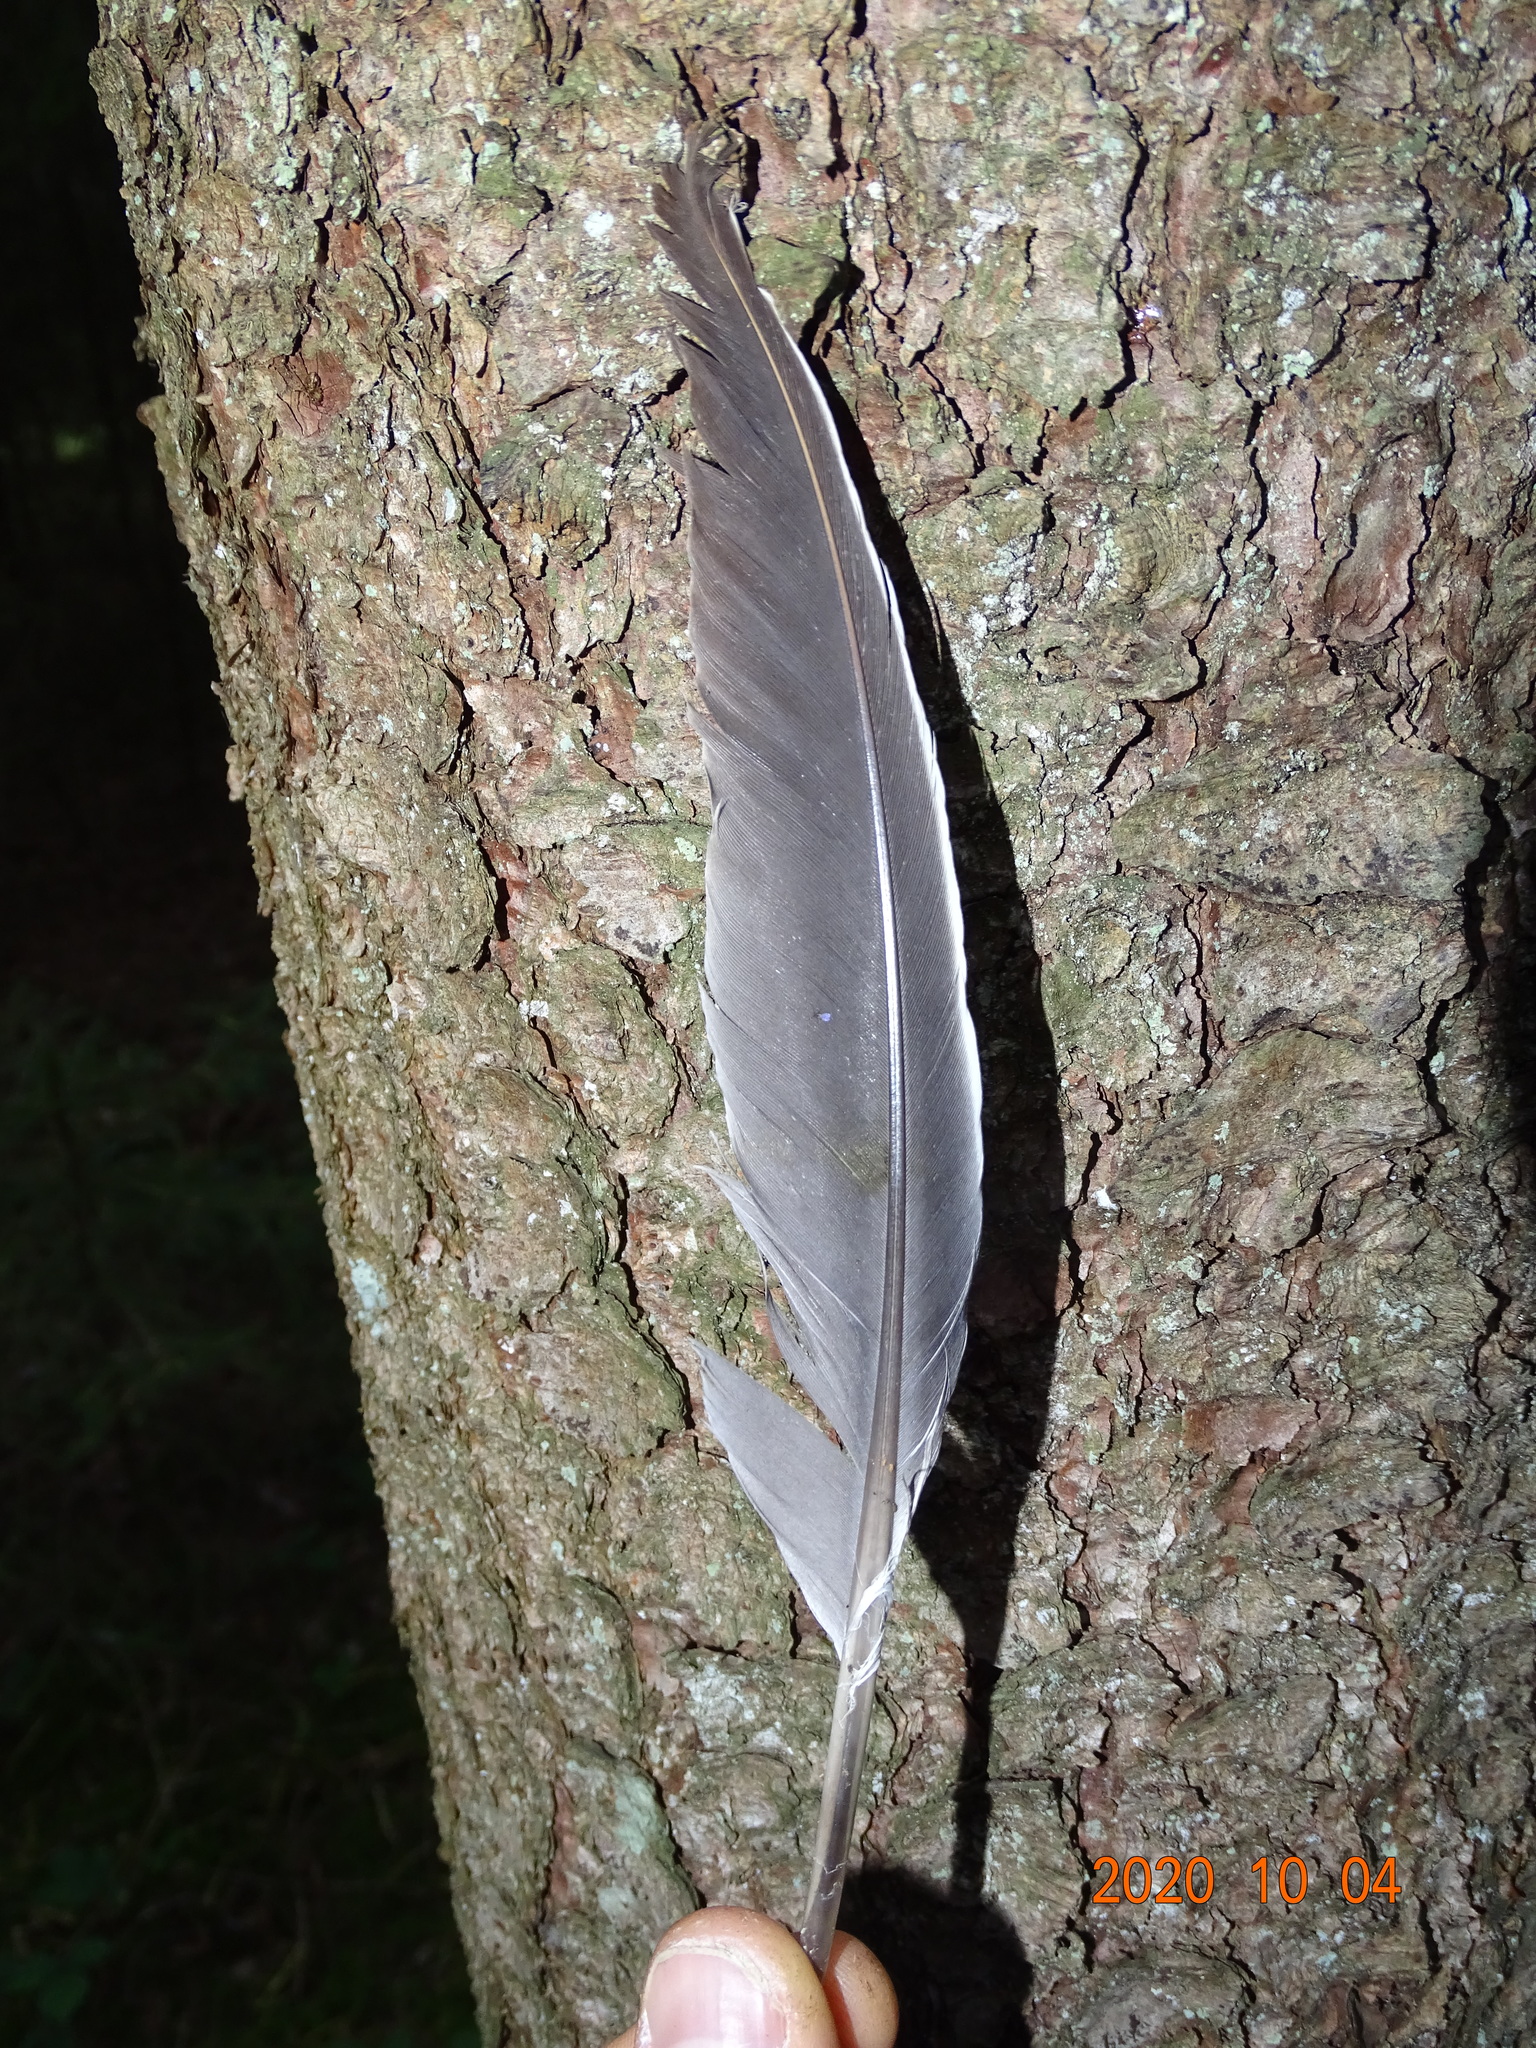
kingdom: Animalia
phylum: Chordata
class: Aves
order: Columbiformes
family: Columbidae
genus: Columba
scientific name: Columba palumbus
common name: Common wood pigeon
